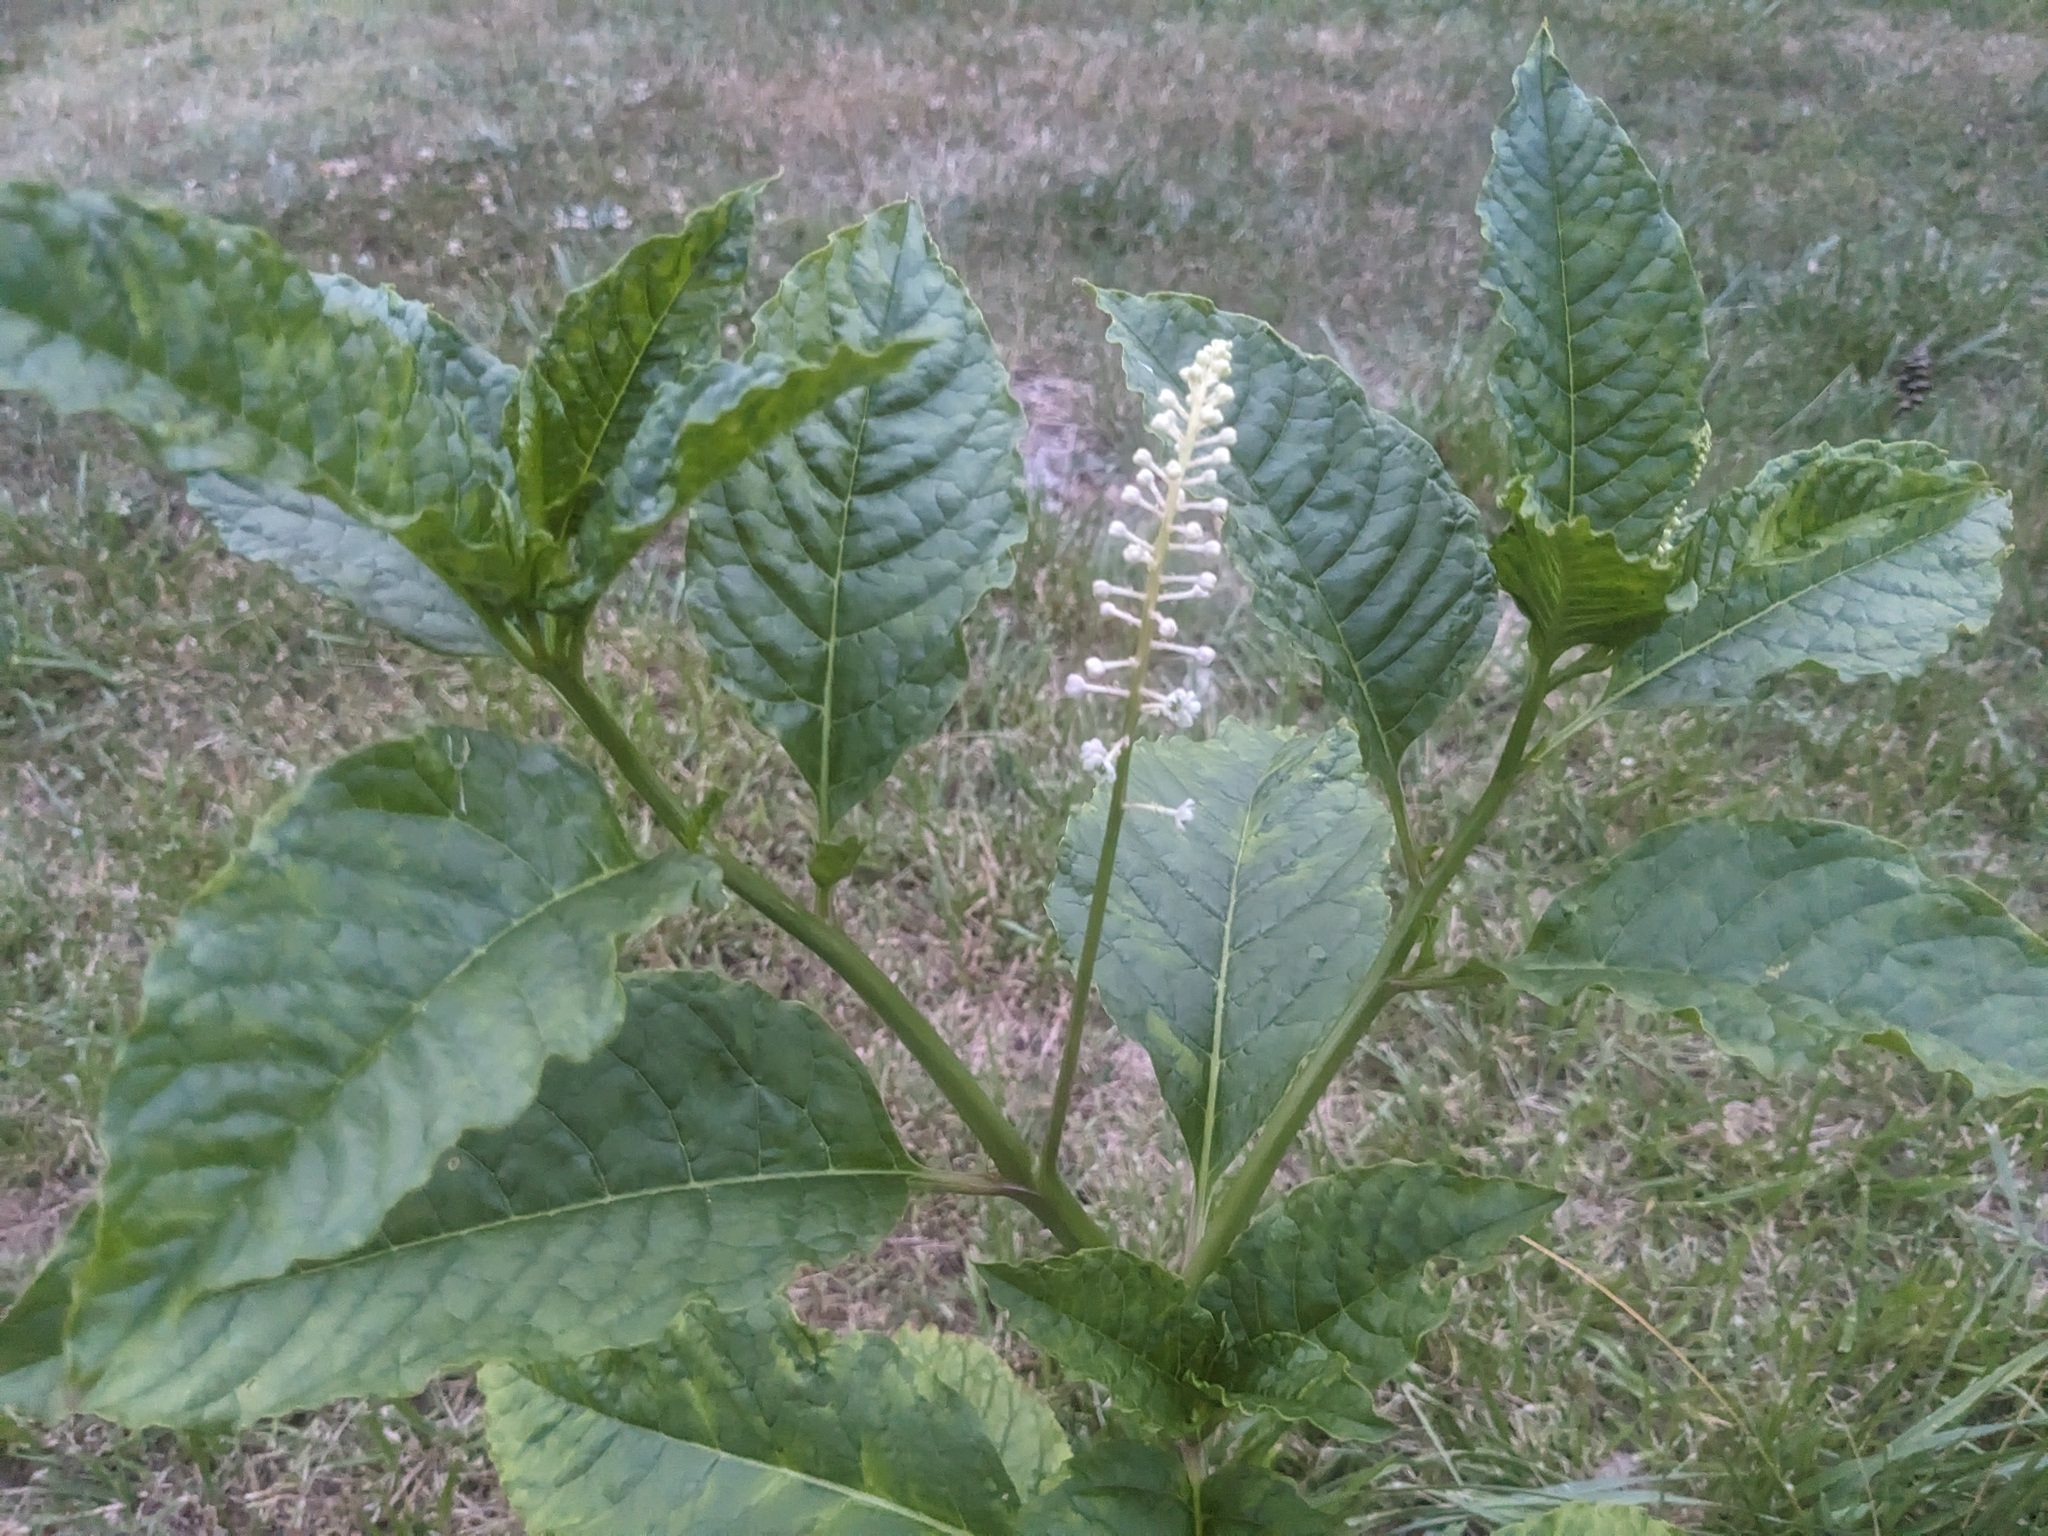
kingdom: Plantae
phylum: Tracheophyta
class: Magnoliopsida
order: Caryophyllales
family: Phytolaccaceae
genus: Phytolacca
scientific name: Phytolacca americana
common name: American pokeweed
